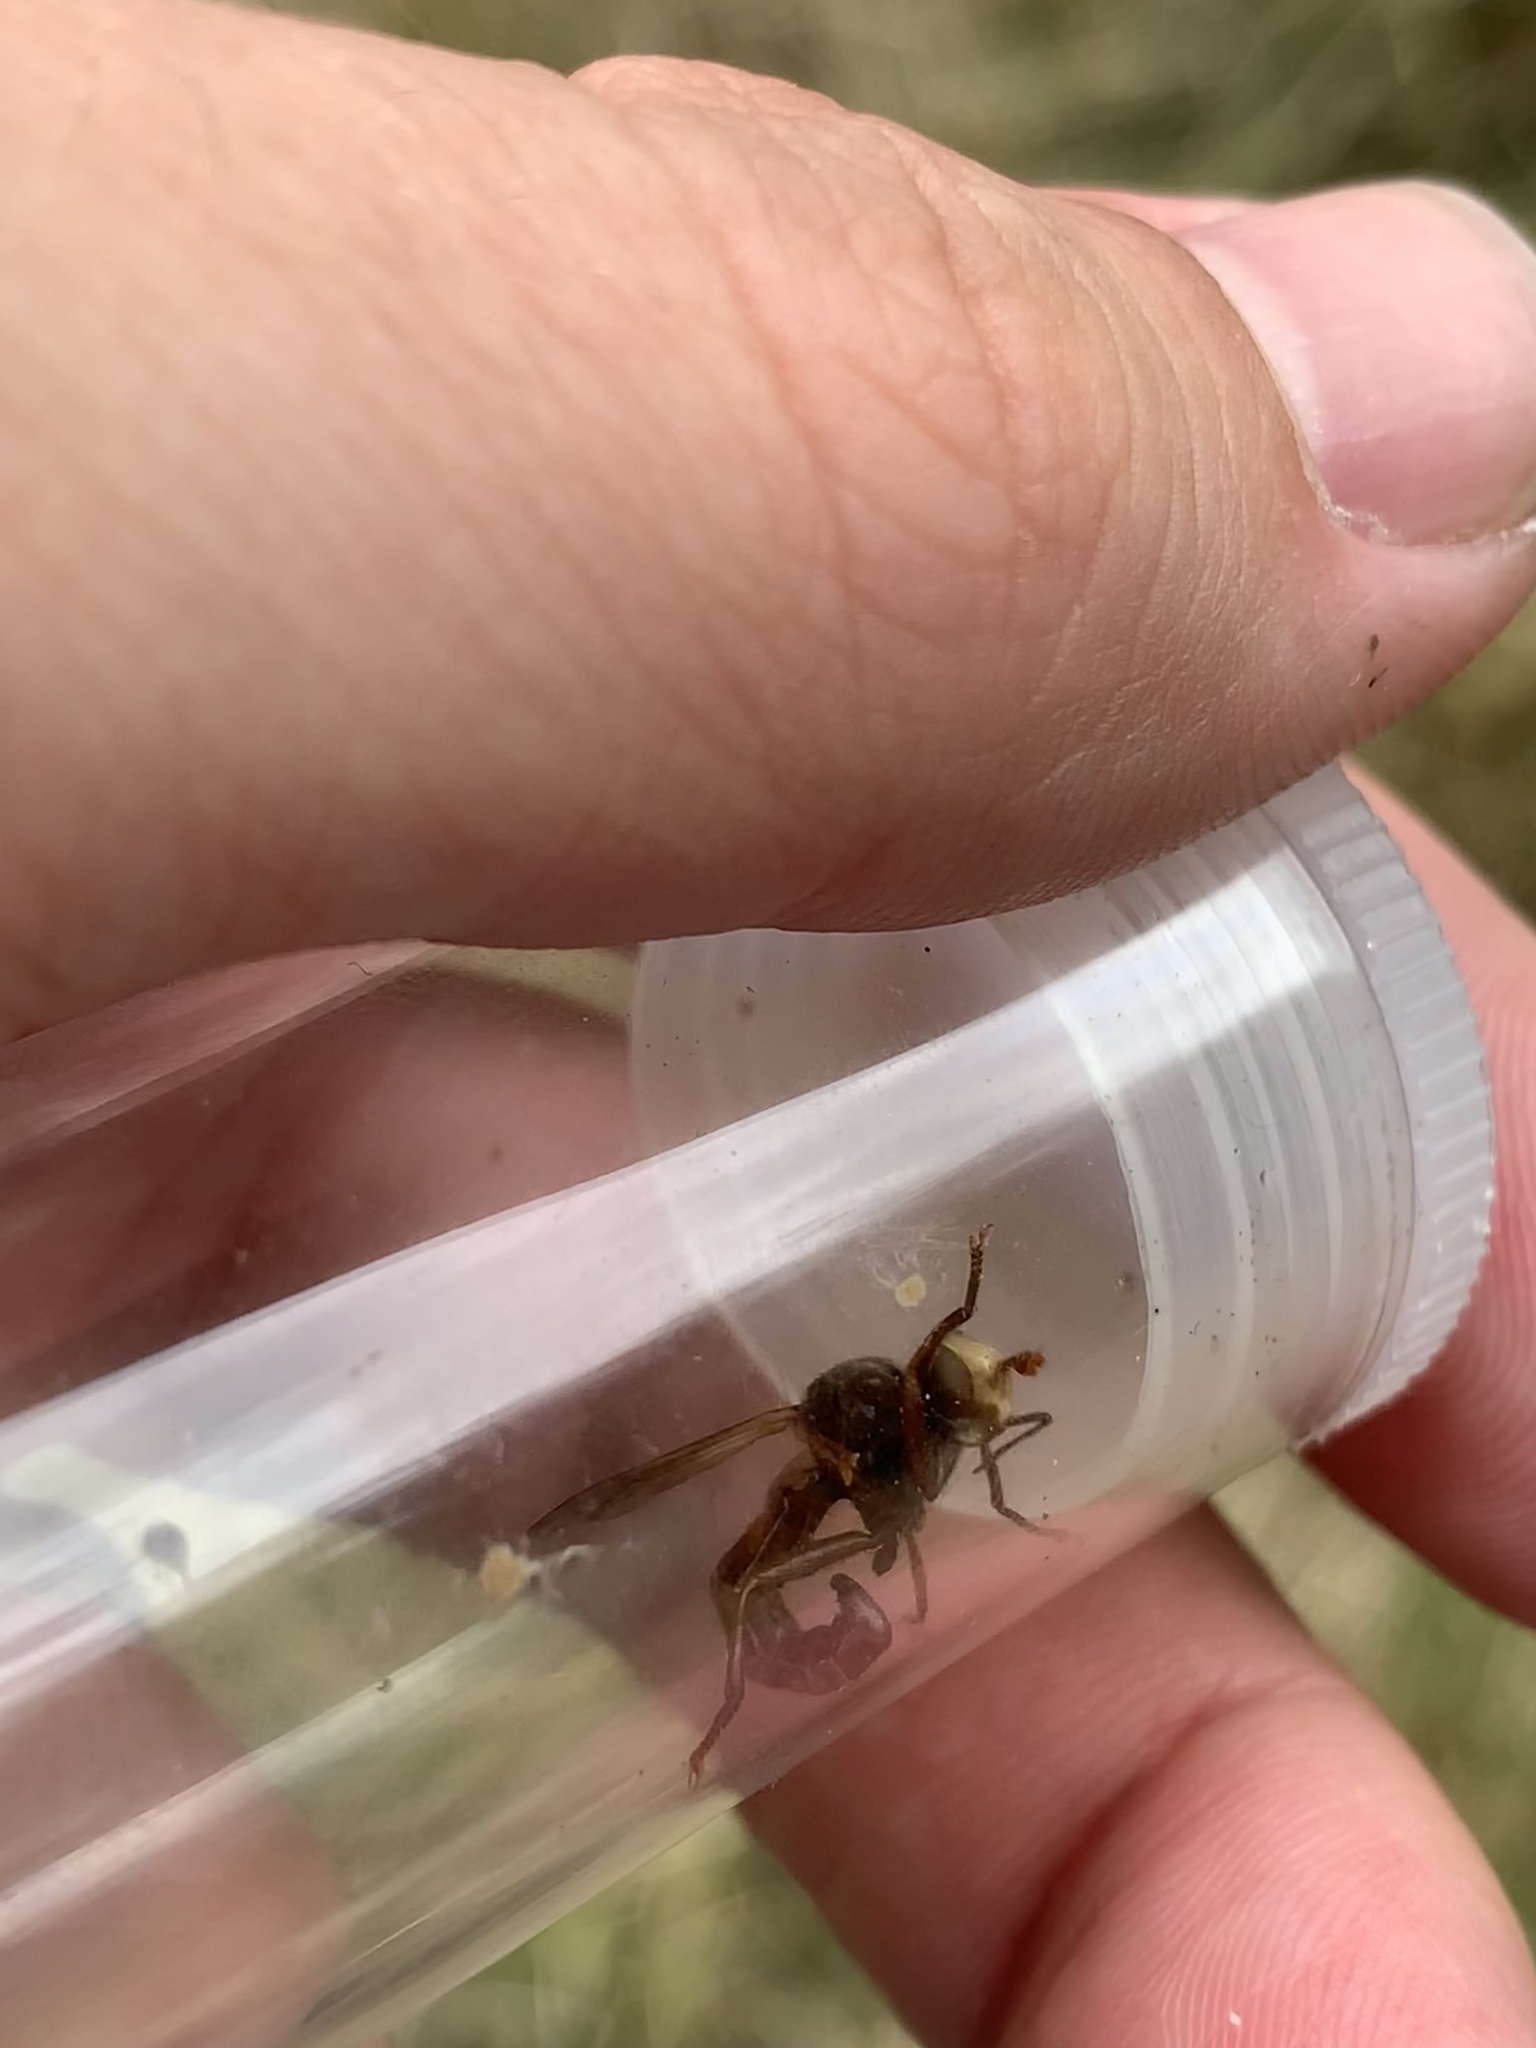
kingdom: Animalia
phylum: Arthropoda
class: Insecta
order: Diptera
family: Conopidae
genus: Sicus
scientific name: Sicus ferrugineus
